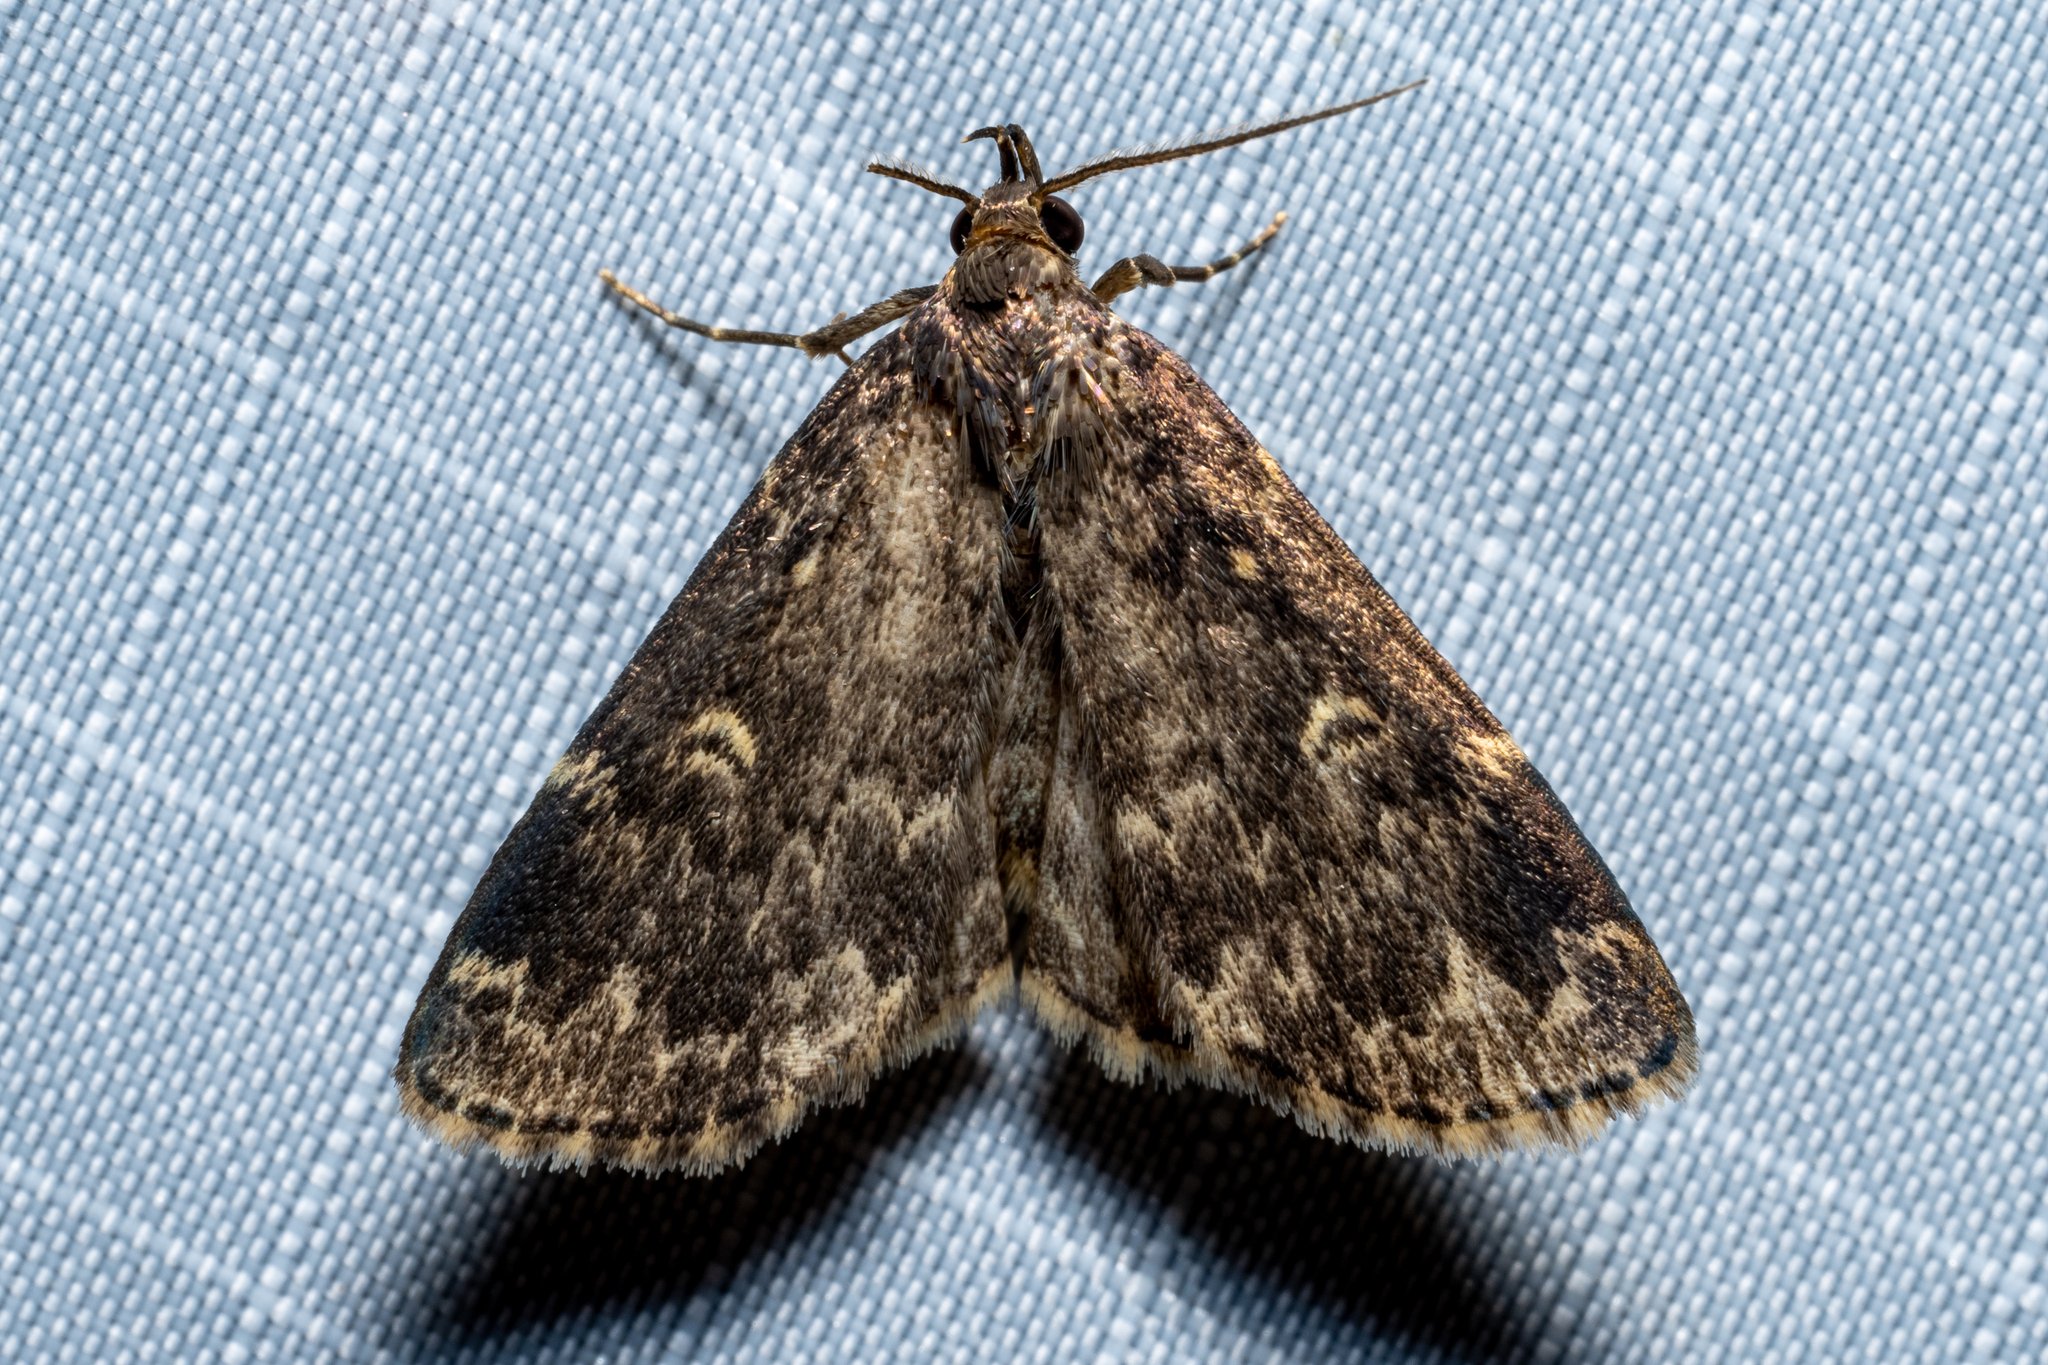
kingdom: Animalia
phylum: Arthropoda
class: Insecta
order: Lepidoptera
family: Erebidae
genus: Idia
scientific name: Idia lubricalis
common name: Twin-striped tabby
